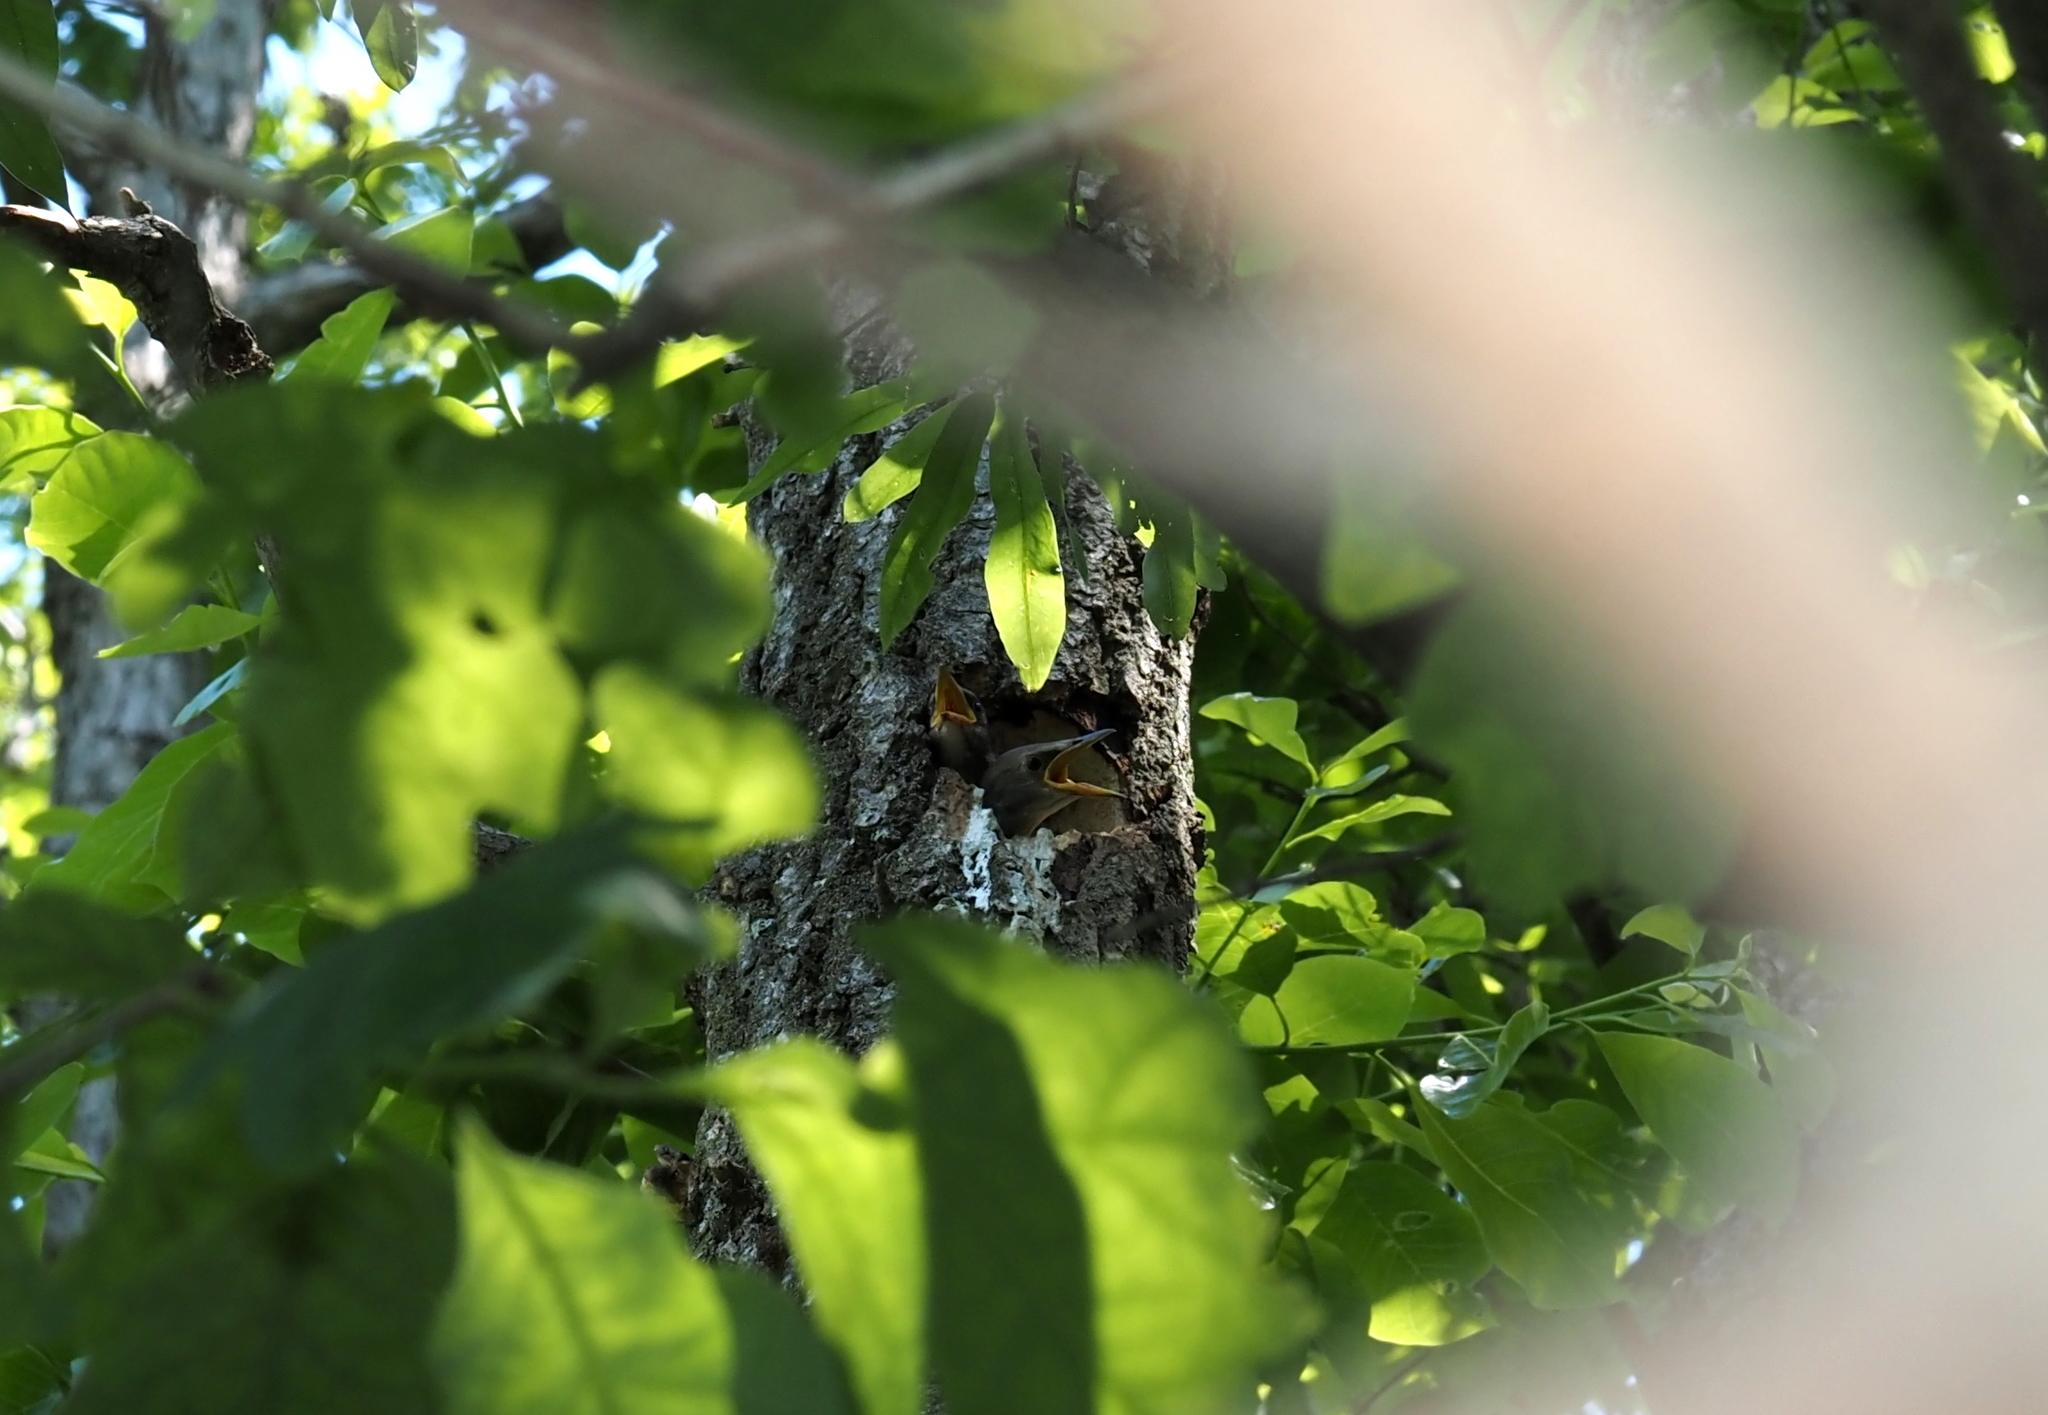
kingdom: Animalia
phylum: Chordata
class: Aves
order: Passeriformes
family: Sturnidae
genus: Sturnus
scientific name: Sturnus vulgaris
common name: Common starling
